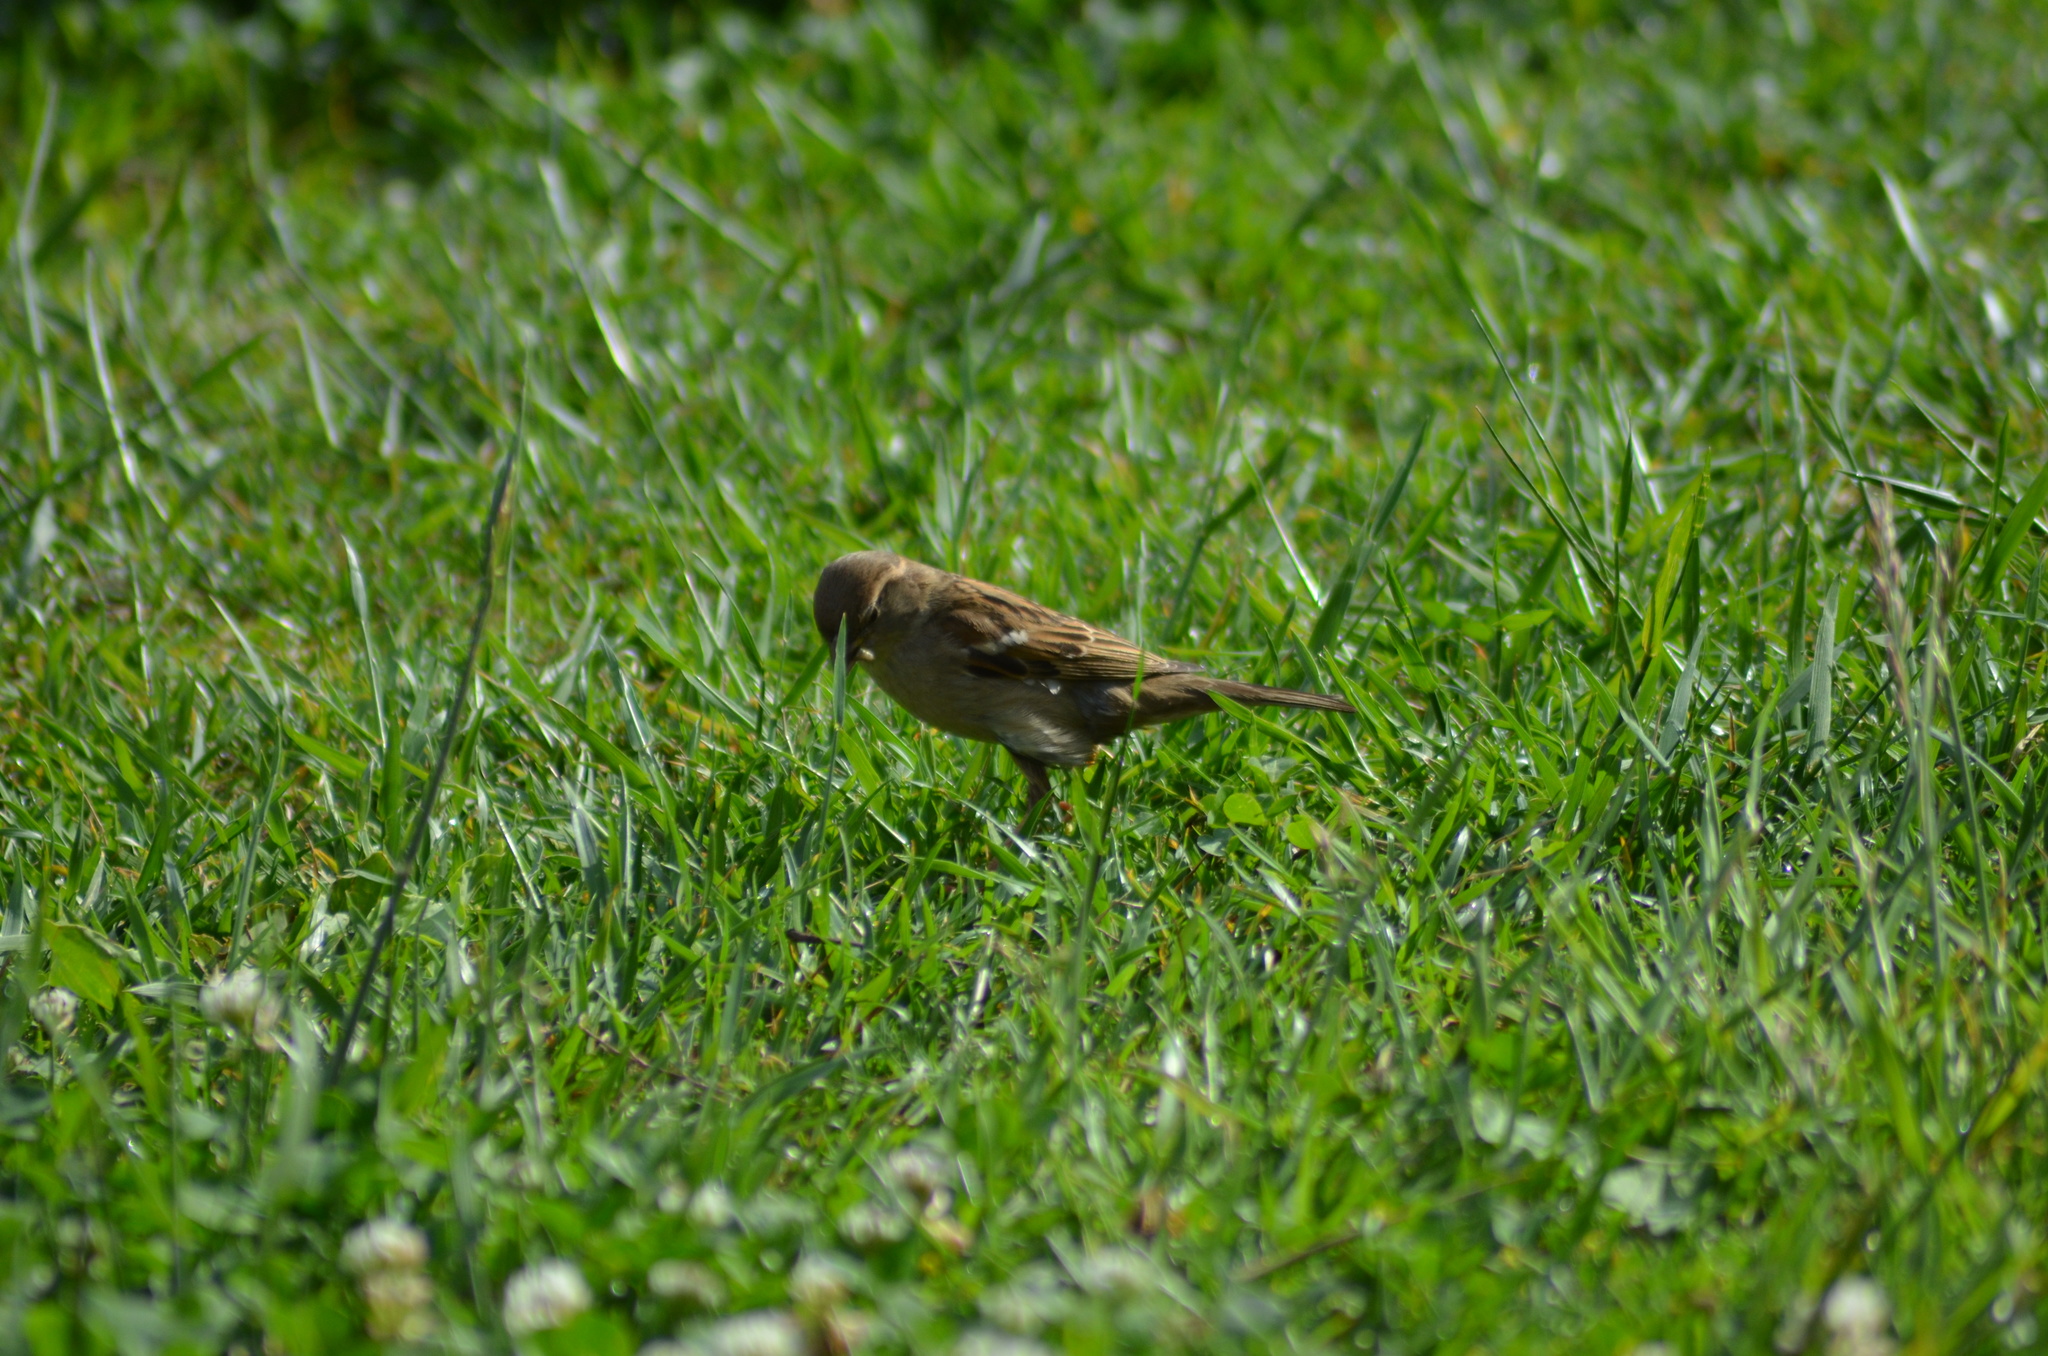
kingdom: Animalia
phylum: Chordata
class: Aves
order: Passeriformes
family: Passeridae
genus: Passer
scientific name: Passer domesticus
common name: House sparrow
